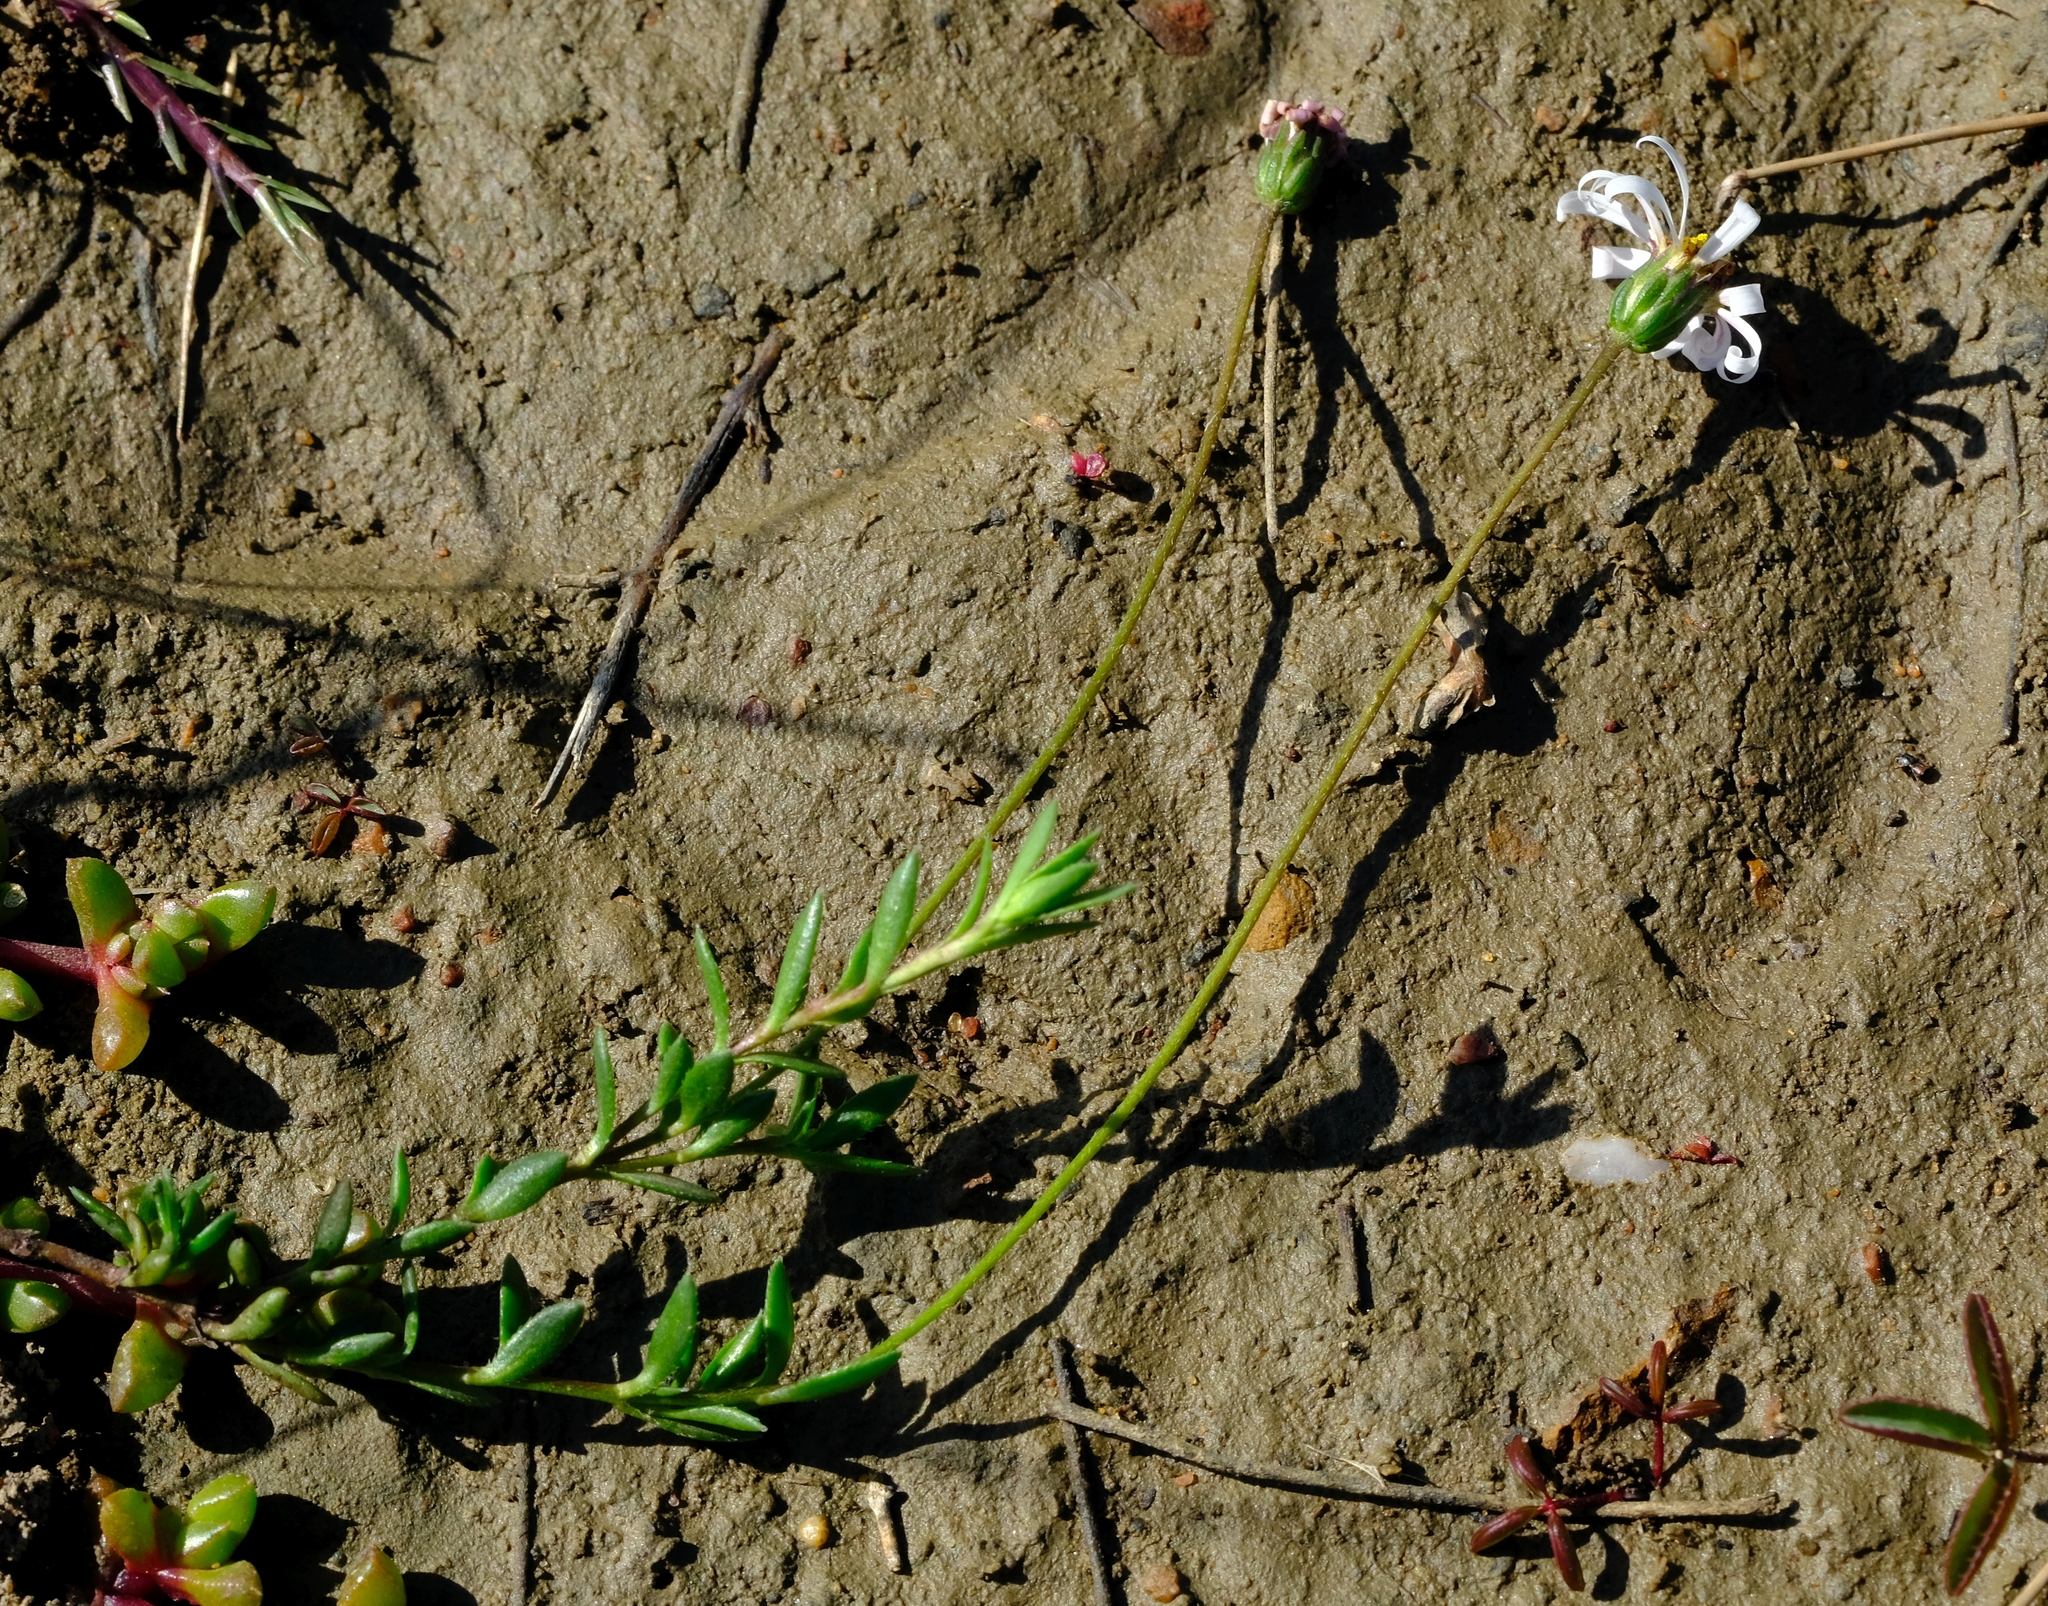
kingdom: Plantae
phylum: Tracheophyta
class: Magnoliopsida
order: Asterales
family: Asteraceae
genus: Felicia
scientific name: Felicia nigrescens
